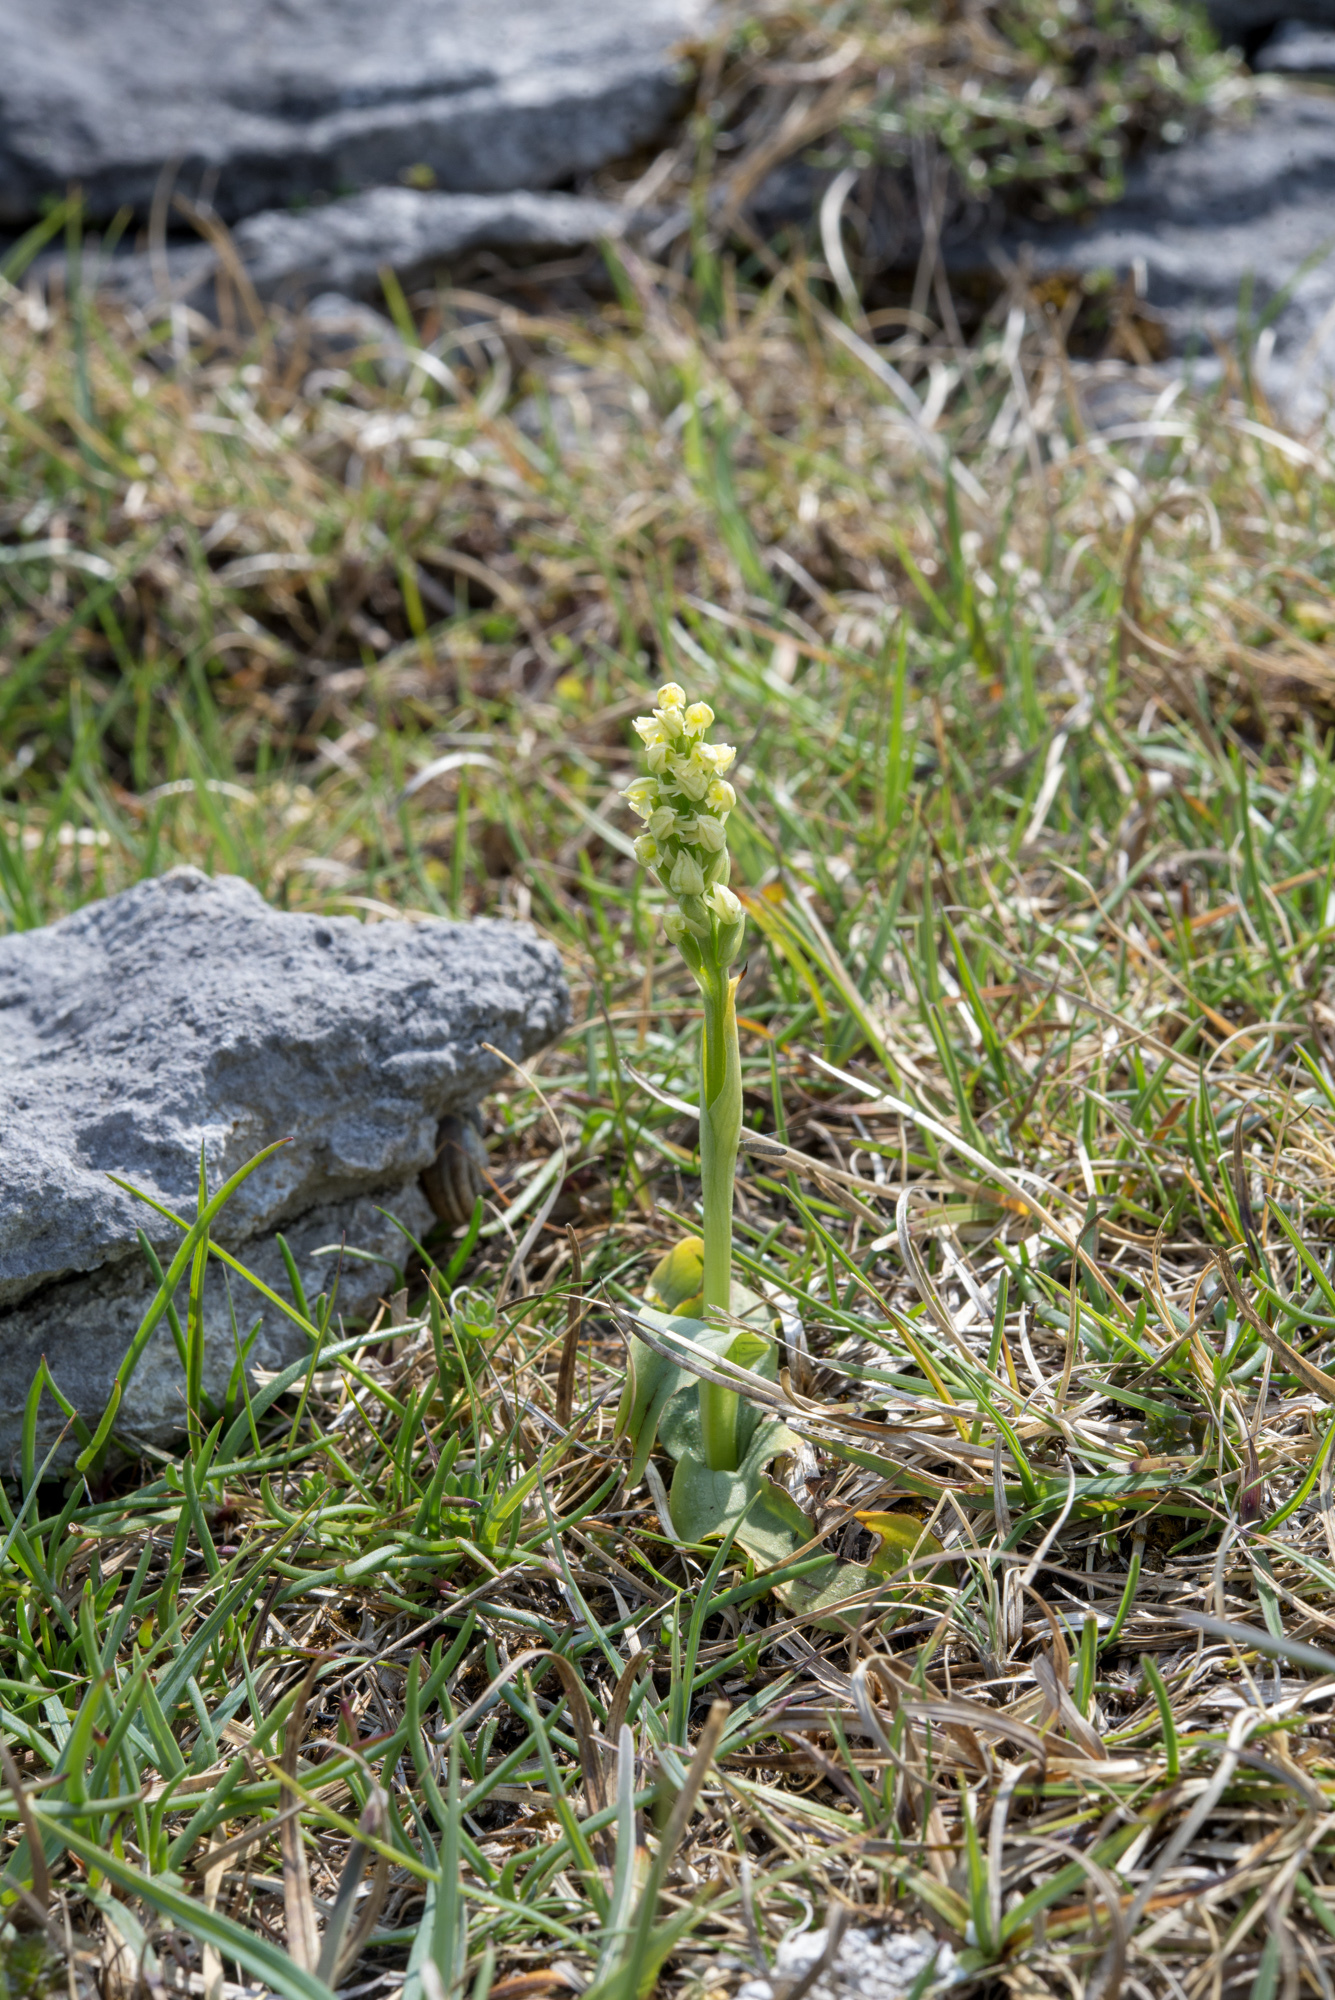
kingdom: Plantae
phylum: Tracheophyta
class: Liliopsida
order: Asparagales
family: Orchidaceae
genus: Neotinea
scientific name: Neotinea maculata
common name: Dense-flowered orchid
